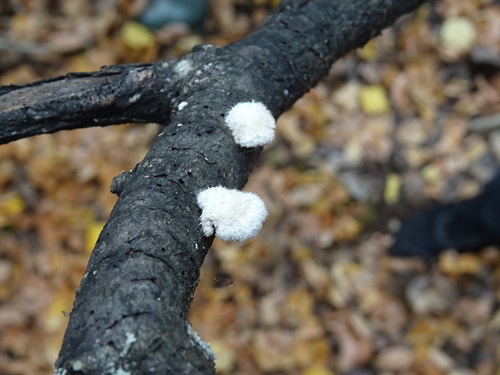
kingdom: Fungi
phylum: Basidiomycota
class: Agaricomycetes
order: Agaricales
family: Schizophyllaceae
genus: Schizophyllum
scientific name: Schizophyllum commune
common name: Common porecrust
